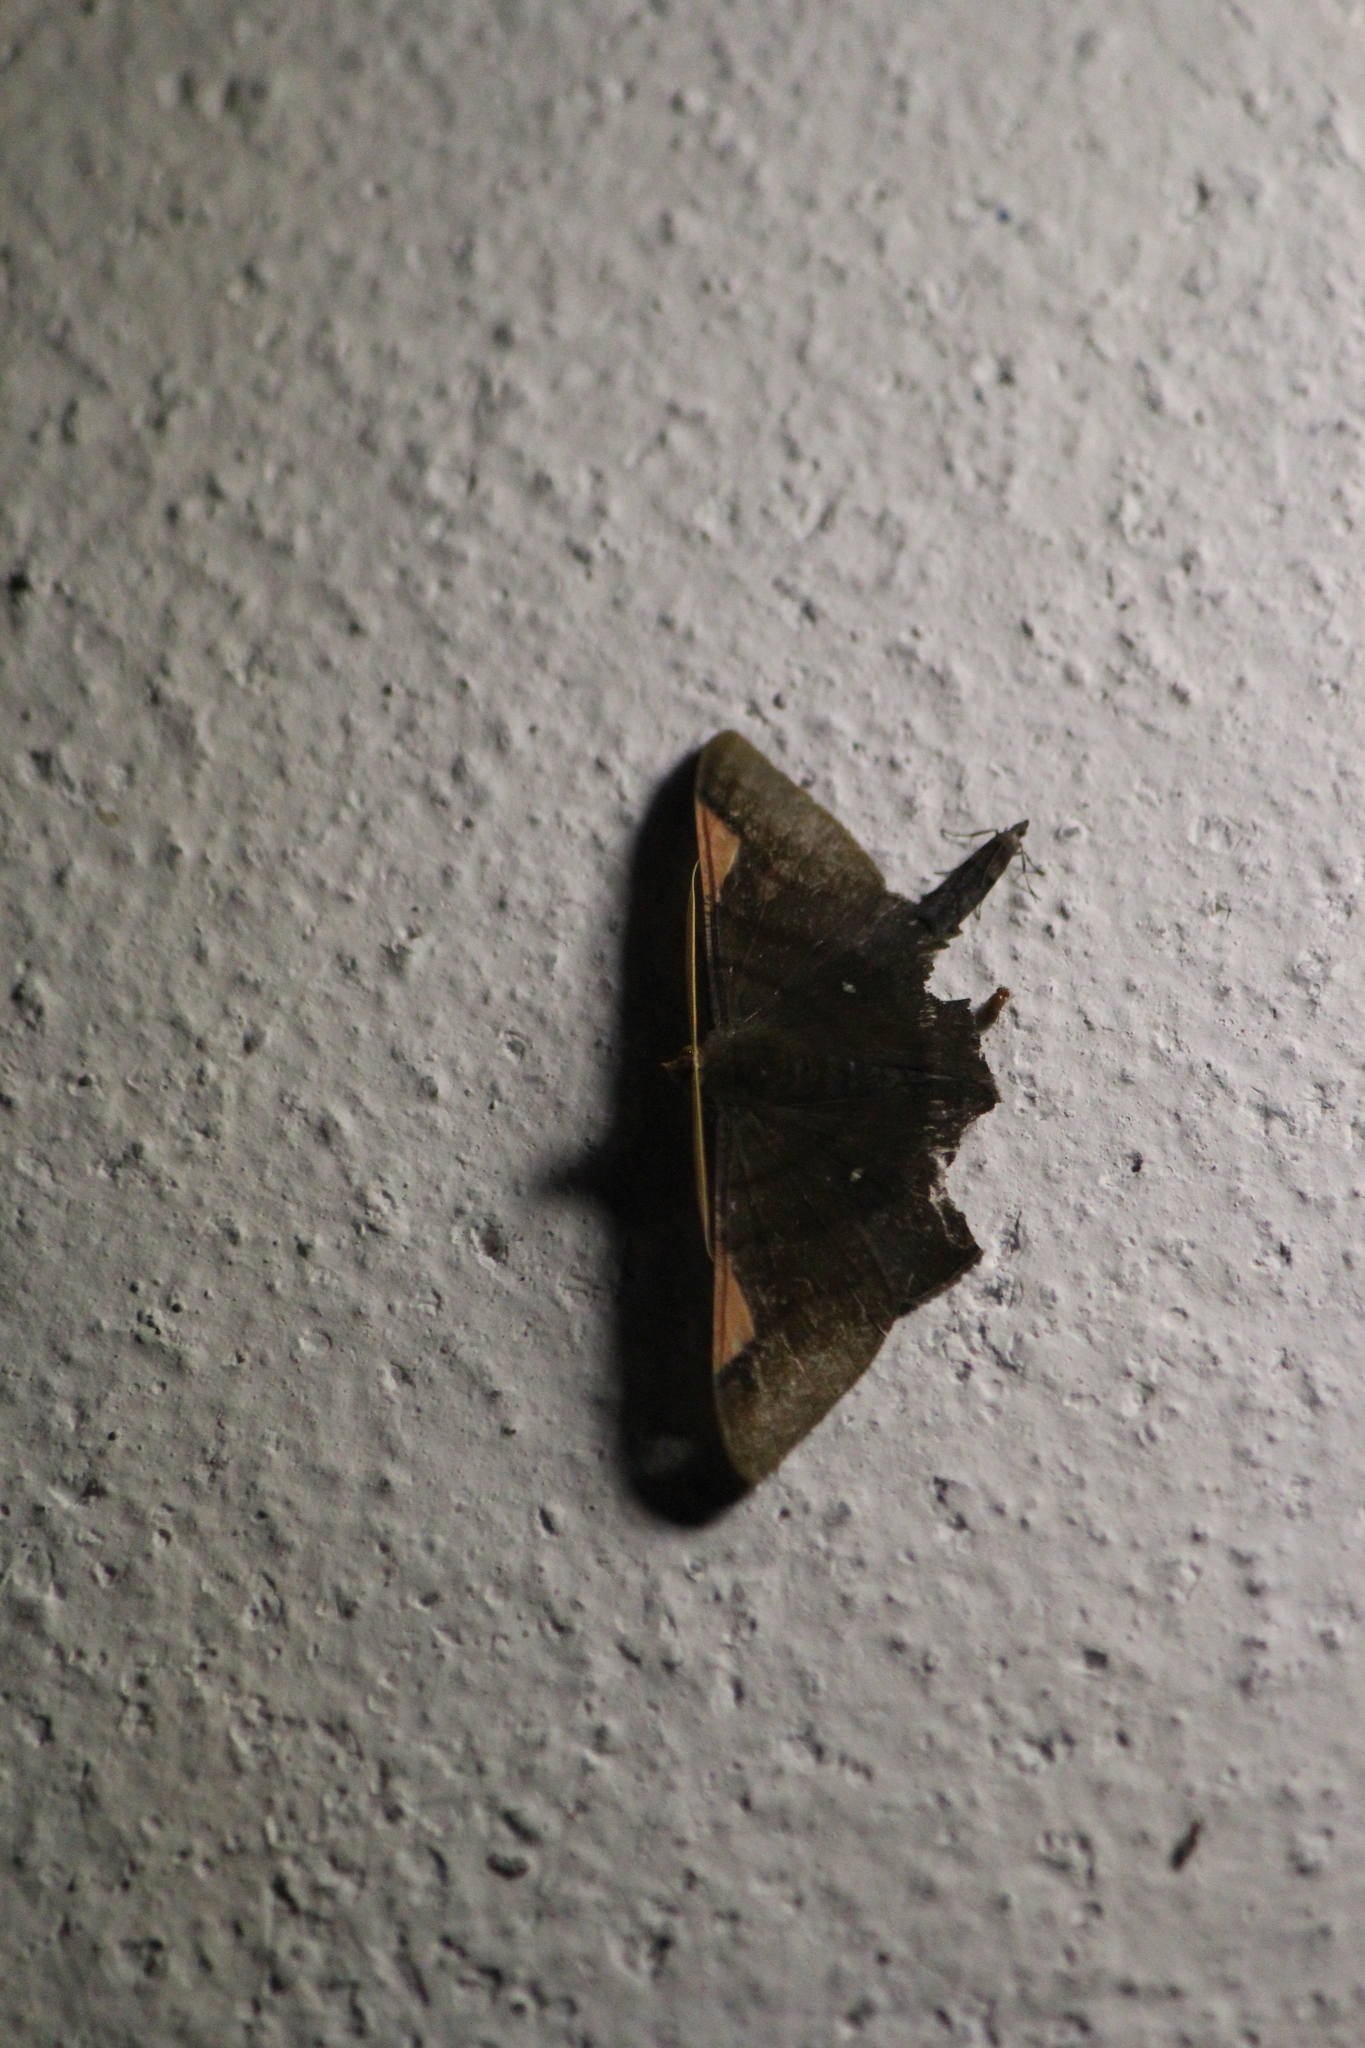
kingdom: Animalia
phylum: Arthropoda
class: Insecta
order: Lepidoptera
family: Geometridae
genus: Sphacelodes
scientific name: Sphacelodes vulneraria
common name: Looper moth
